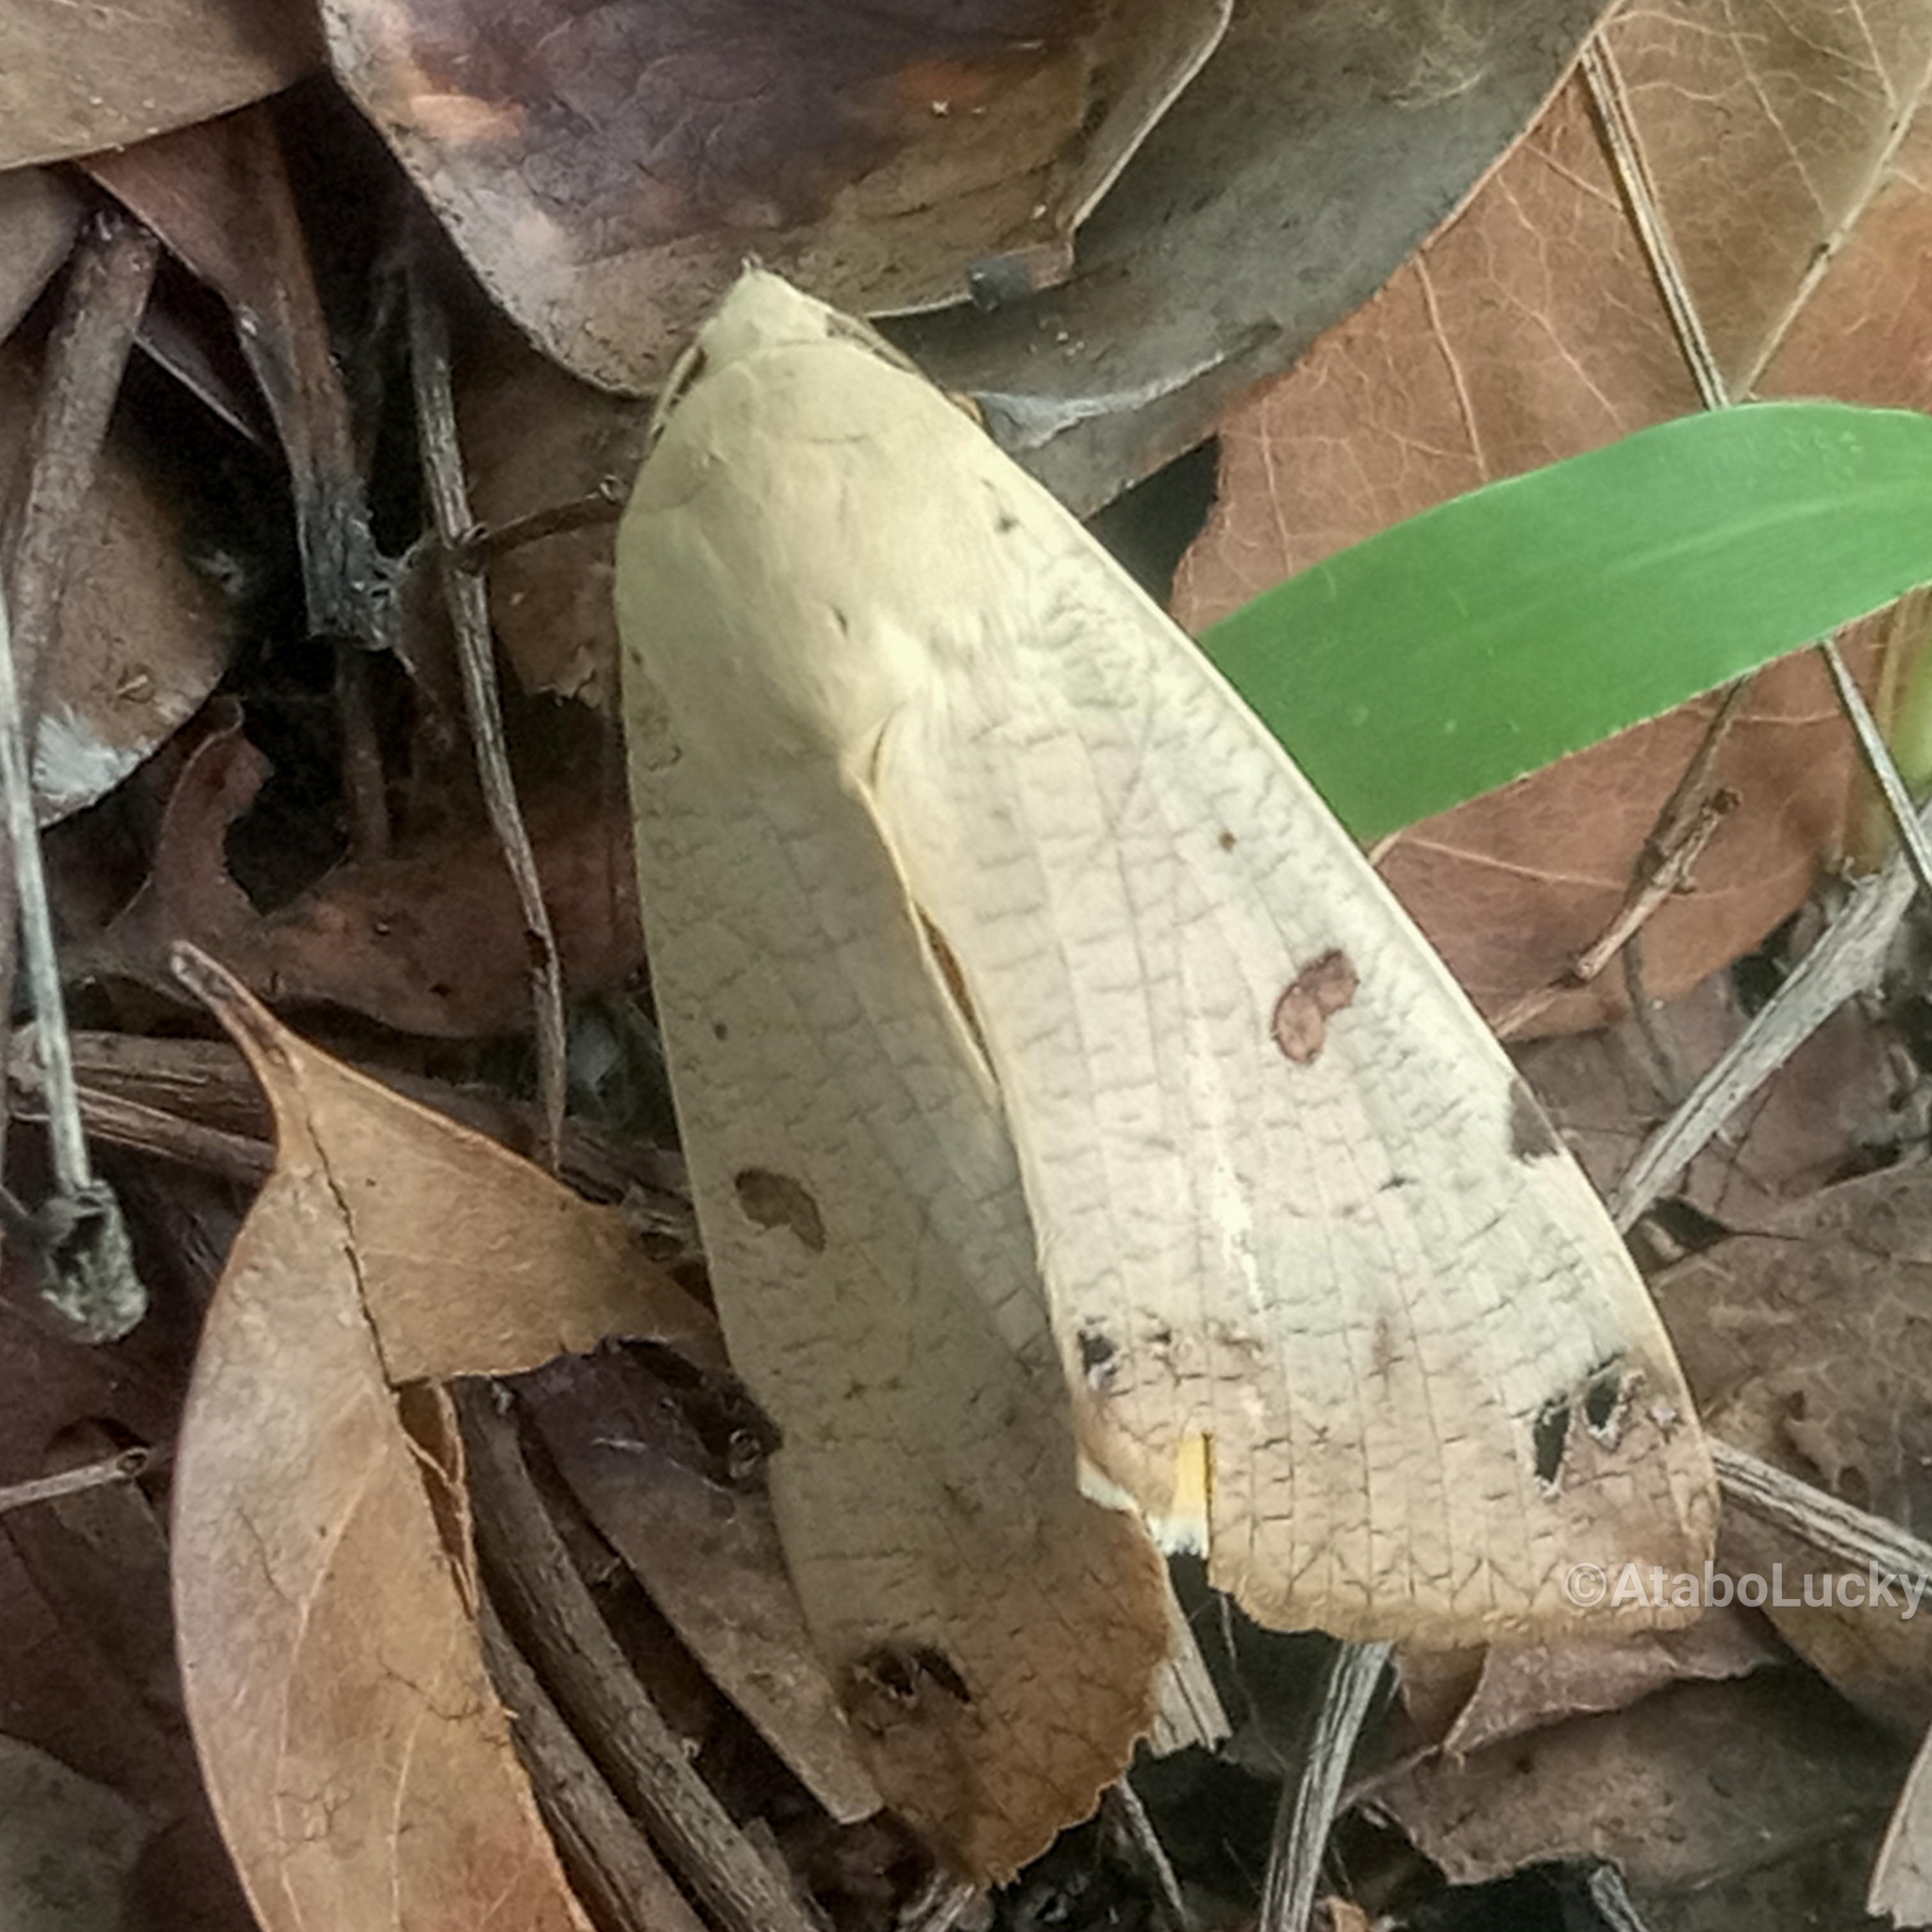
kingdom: Animalia
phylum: Arthropoda
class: Insecta
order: Lepidoptera
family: Erebidae
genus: Ophiusa
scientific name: Ophiusa tirhaca
